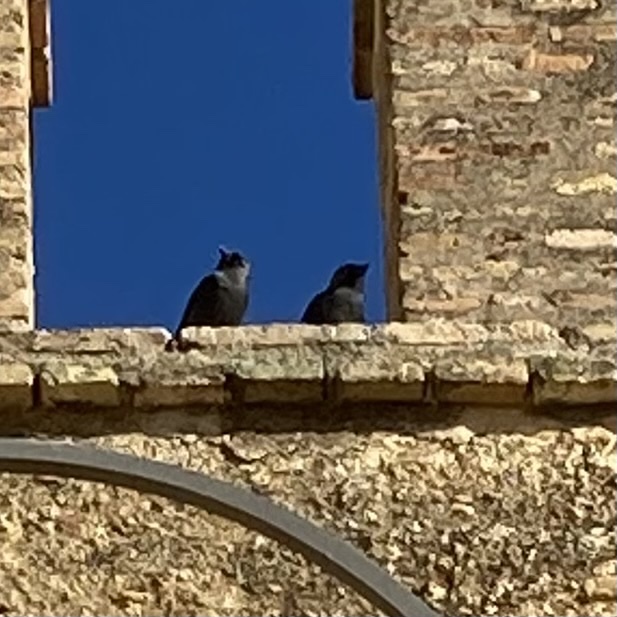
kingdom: Animalia
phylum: Chordata
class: Aves
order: Passeriformes
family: Corvidae
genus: Coloeus
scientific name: Coloeus monedula
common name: Western jackdaw
